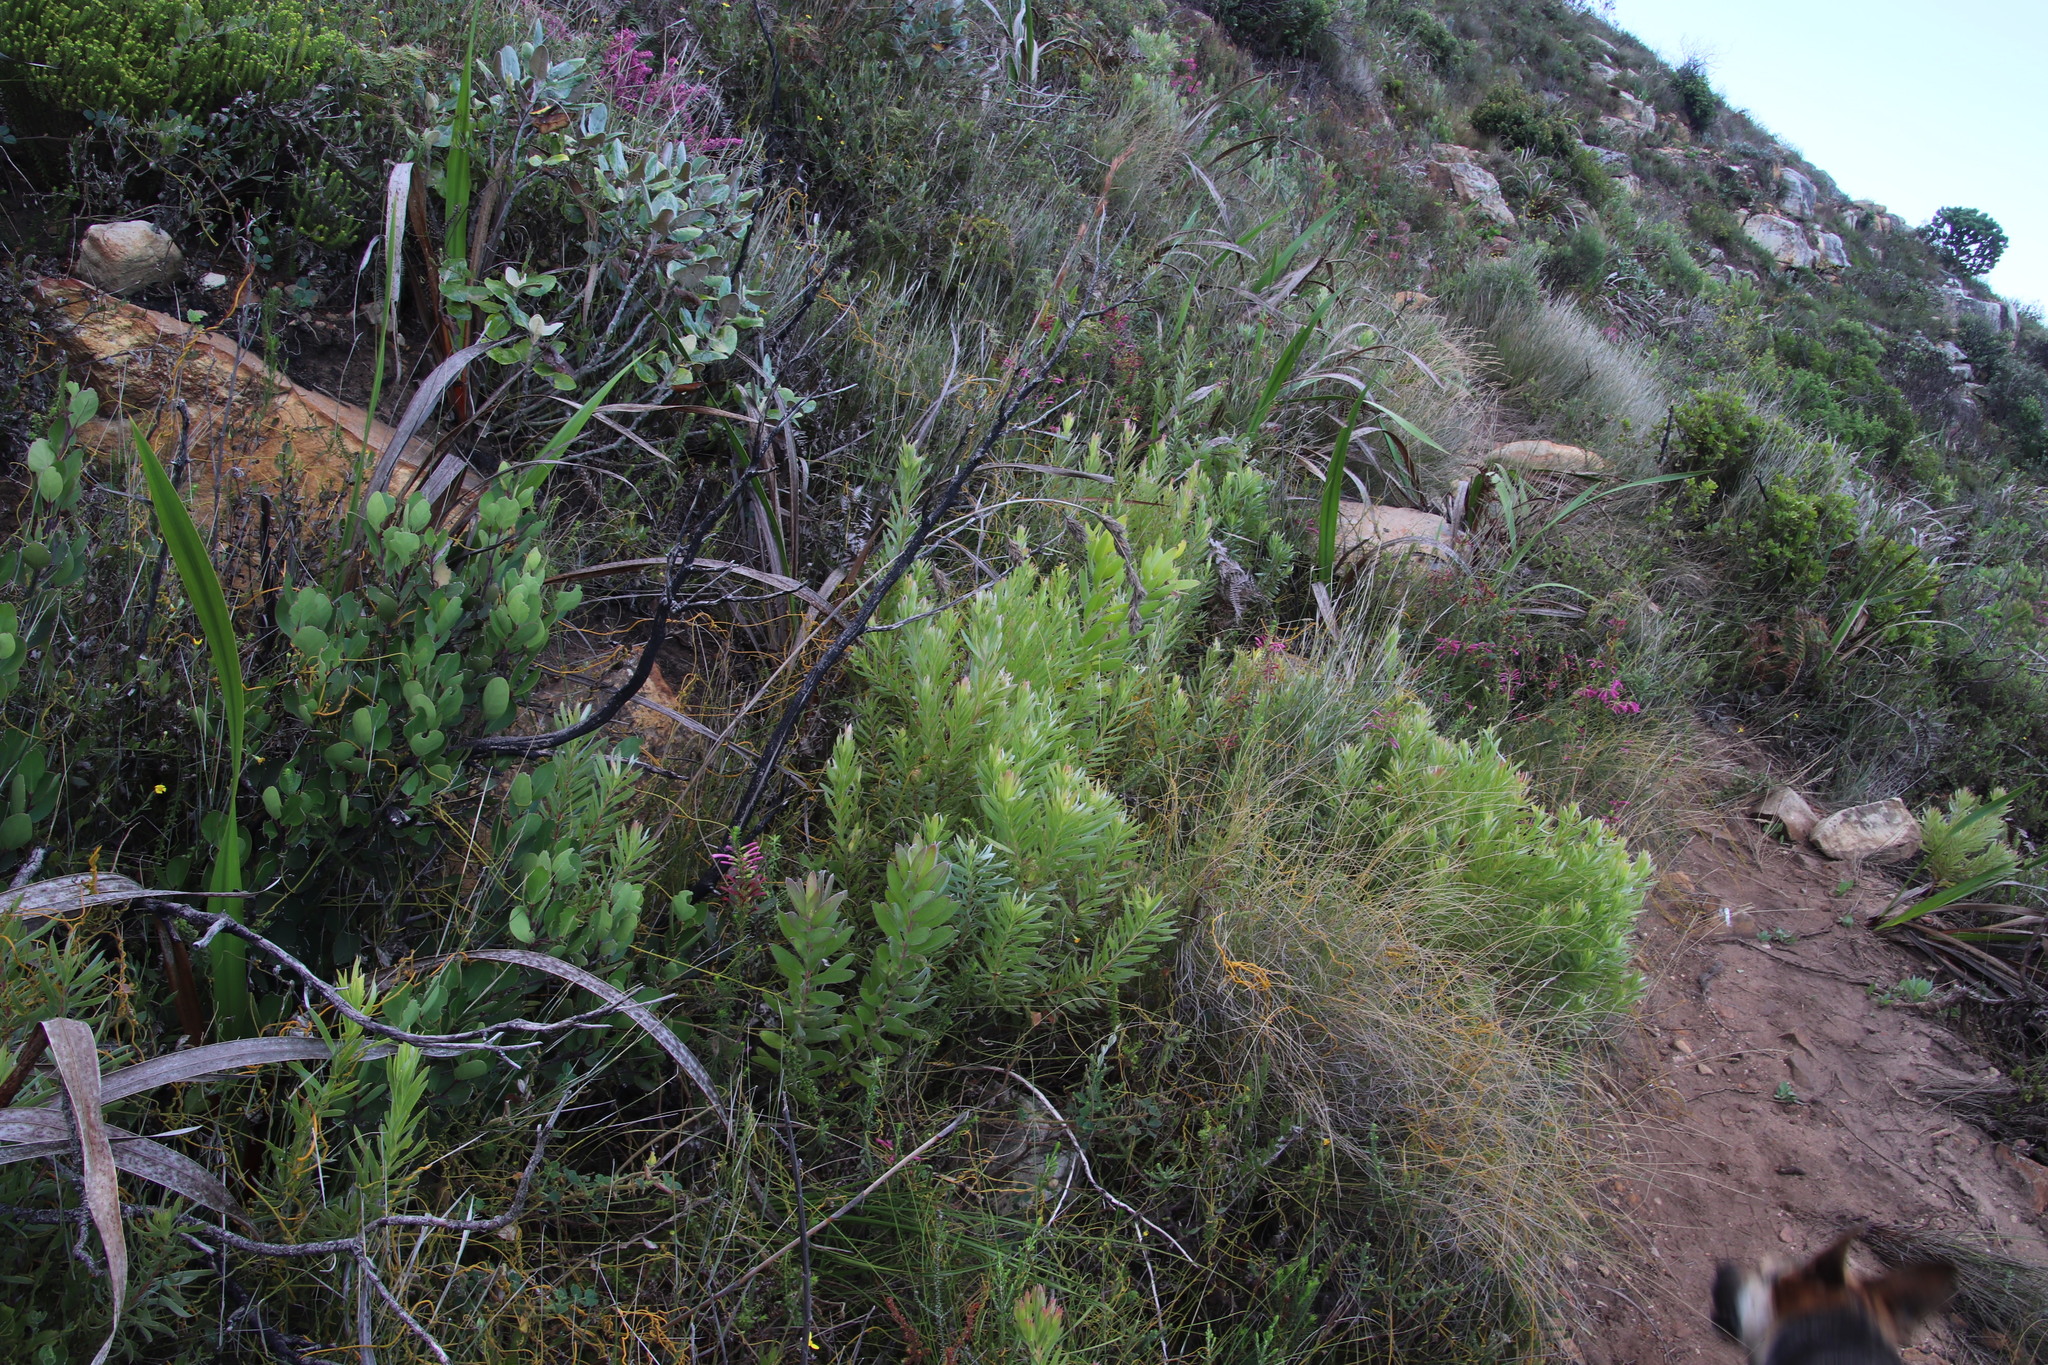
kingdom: Plantae
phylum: Tracheophyta
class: Magnoliopsida
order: Proteales
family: Proteaceae
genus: Leucadendron
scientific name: Leucadendron xanthoconus
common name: Sickle-leaf conebush
